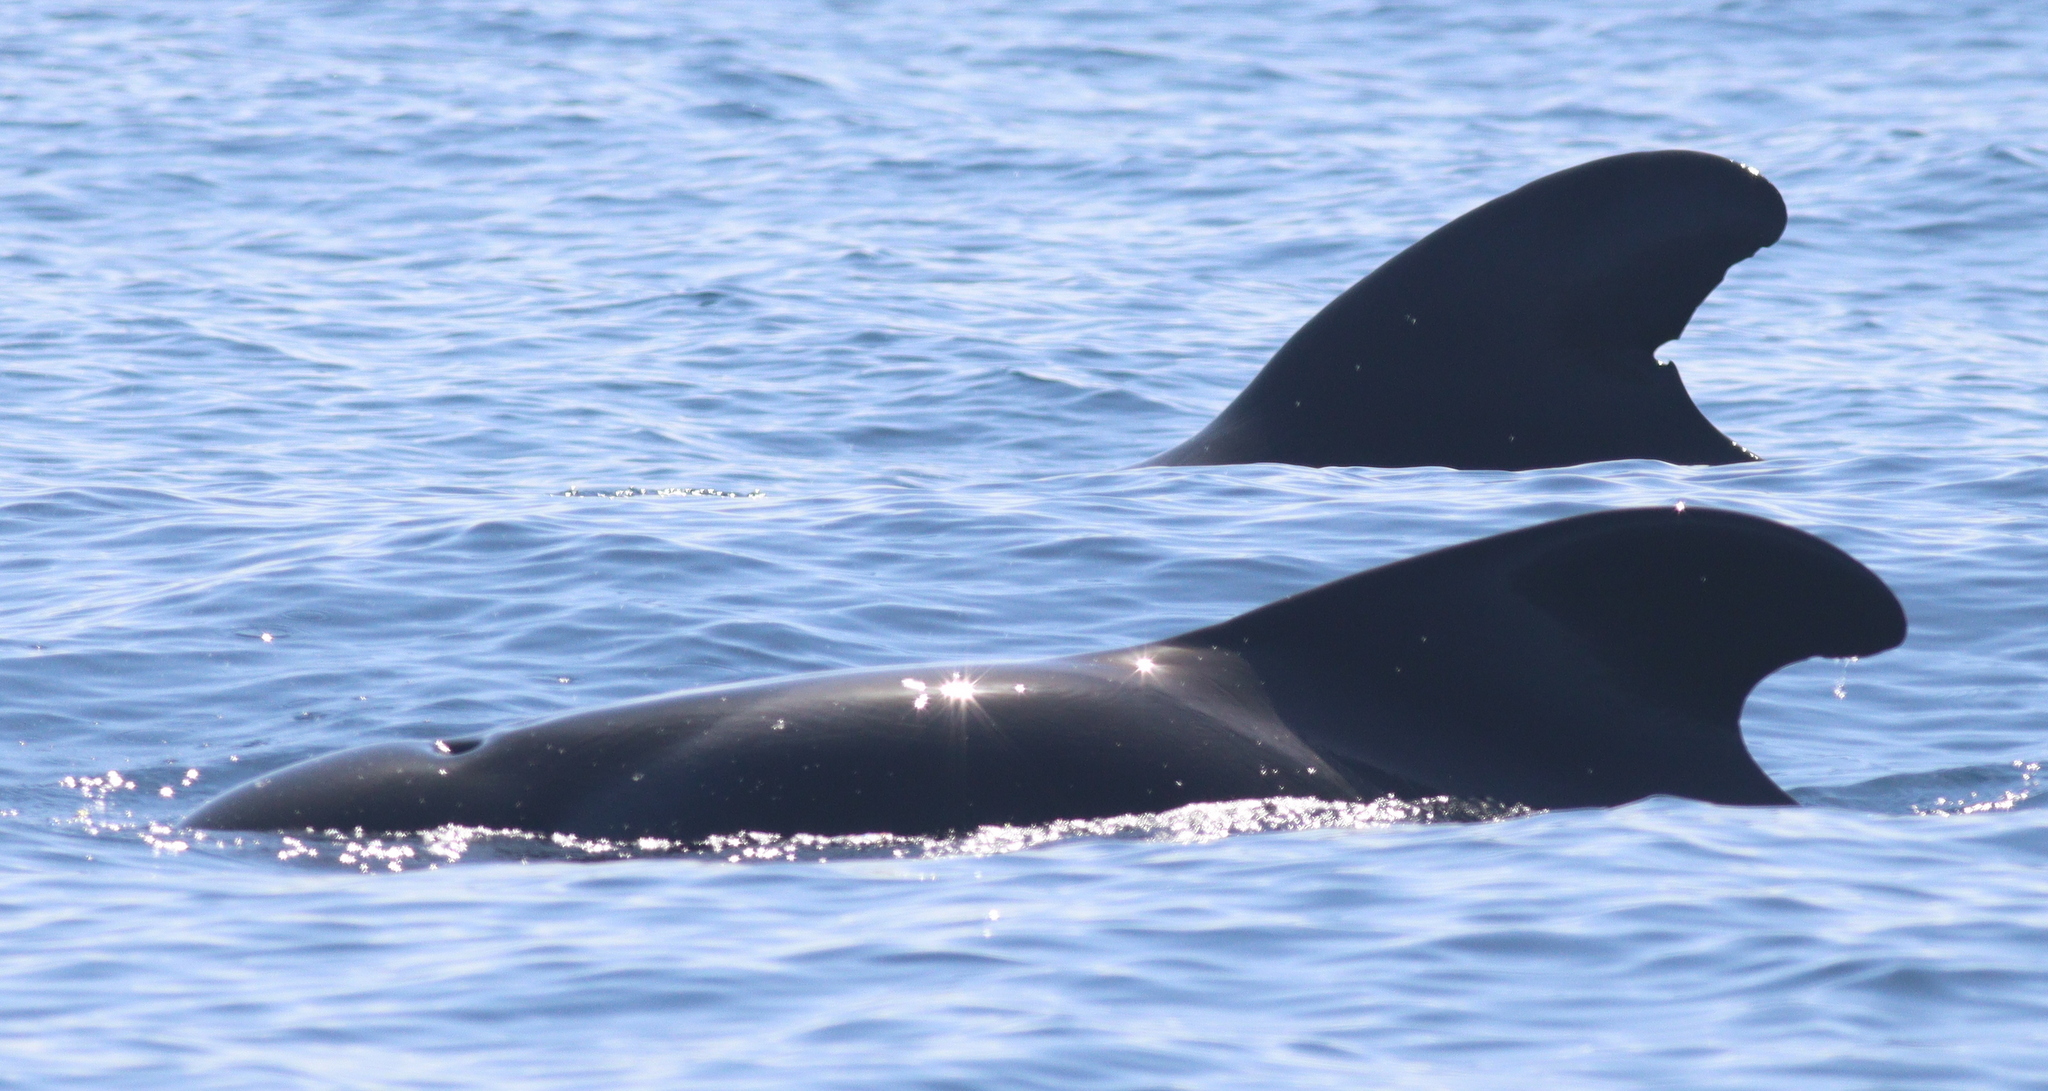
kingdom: Animalia
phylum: Chordata
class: Mammalia
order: Cetacea
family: Delphinidae
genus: Globicephala
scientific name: Globicephala macrorhynchus
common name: Short-finned pilot whale
